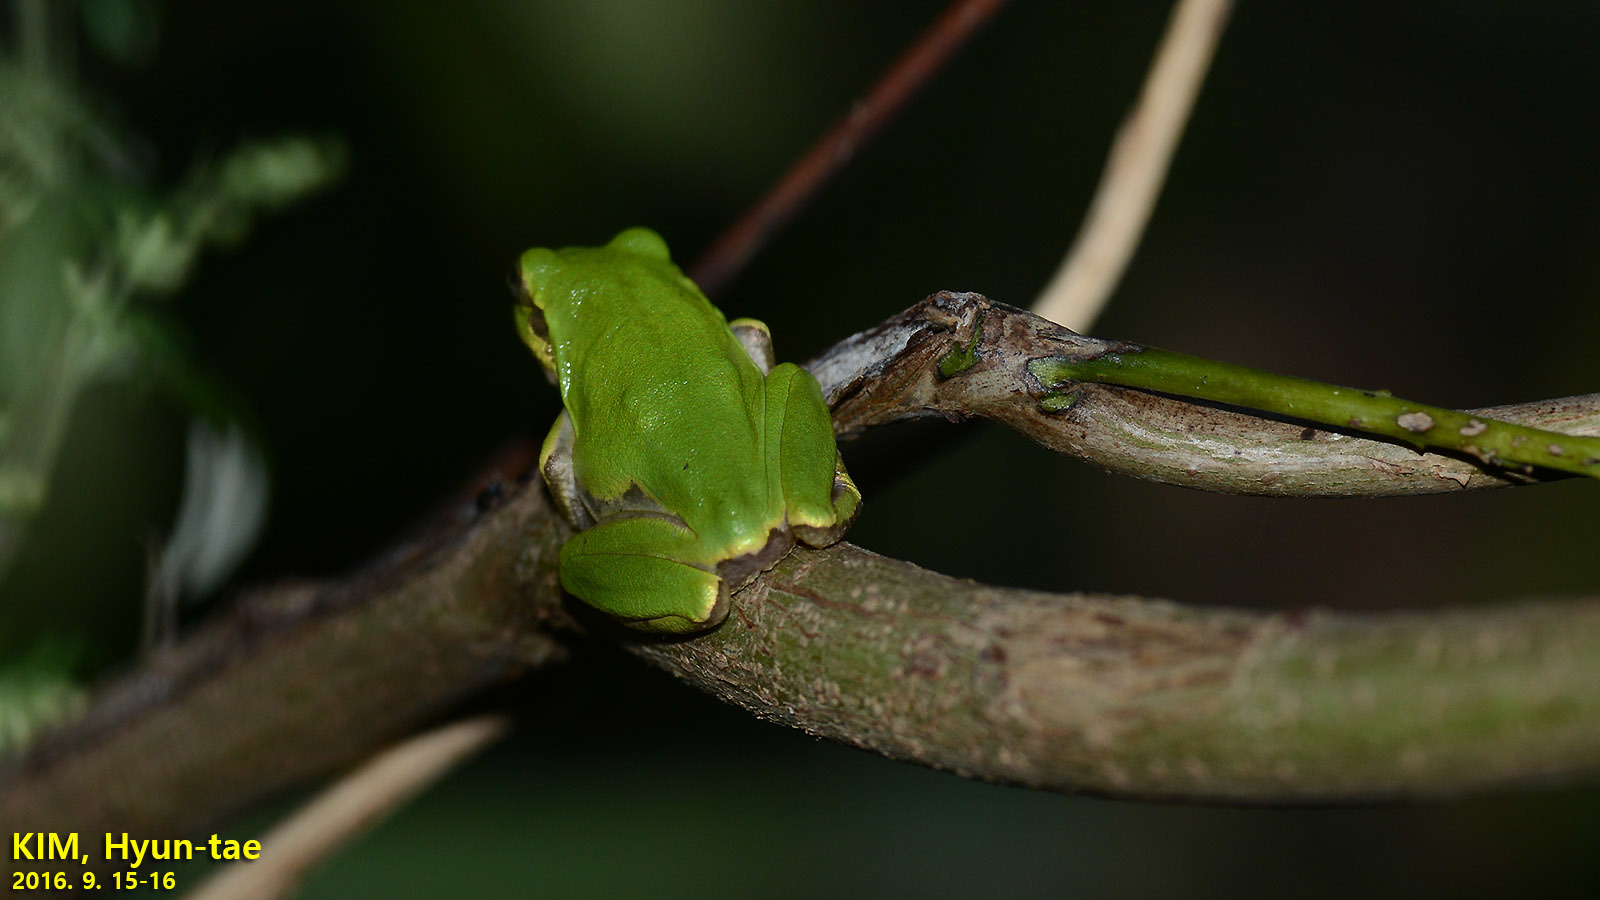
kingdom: Animalia
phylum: Chordata
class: Amphibia
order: Anura
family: Hylidae
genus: Dryophytes
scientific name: Dryophytes japonicus
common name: Japanese treefrog
